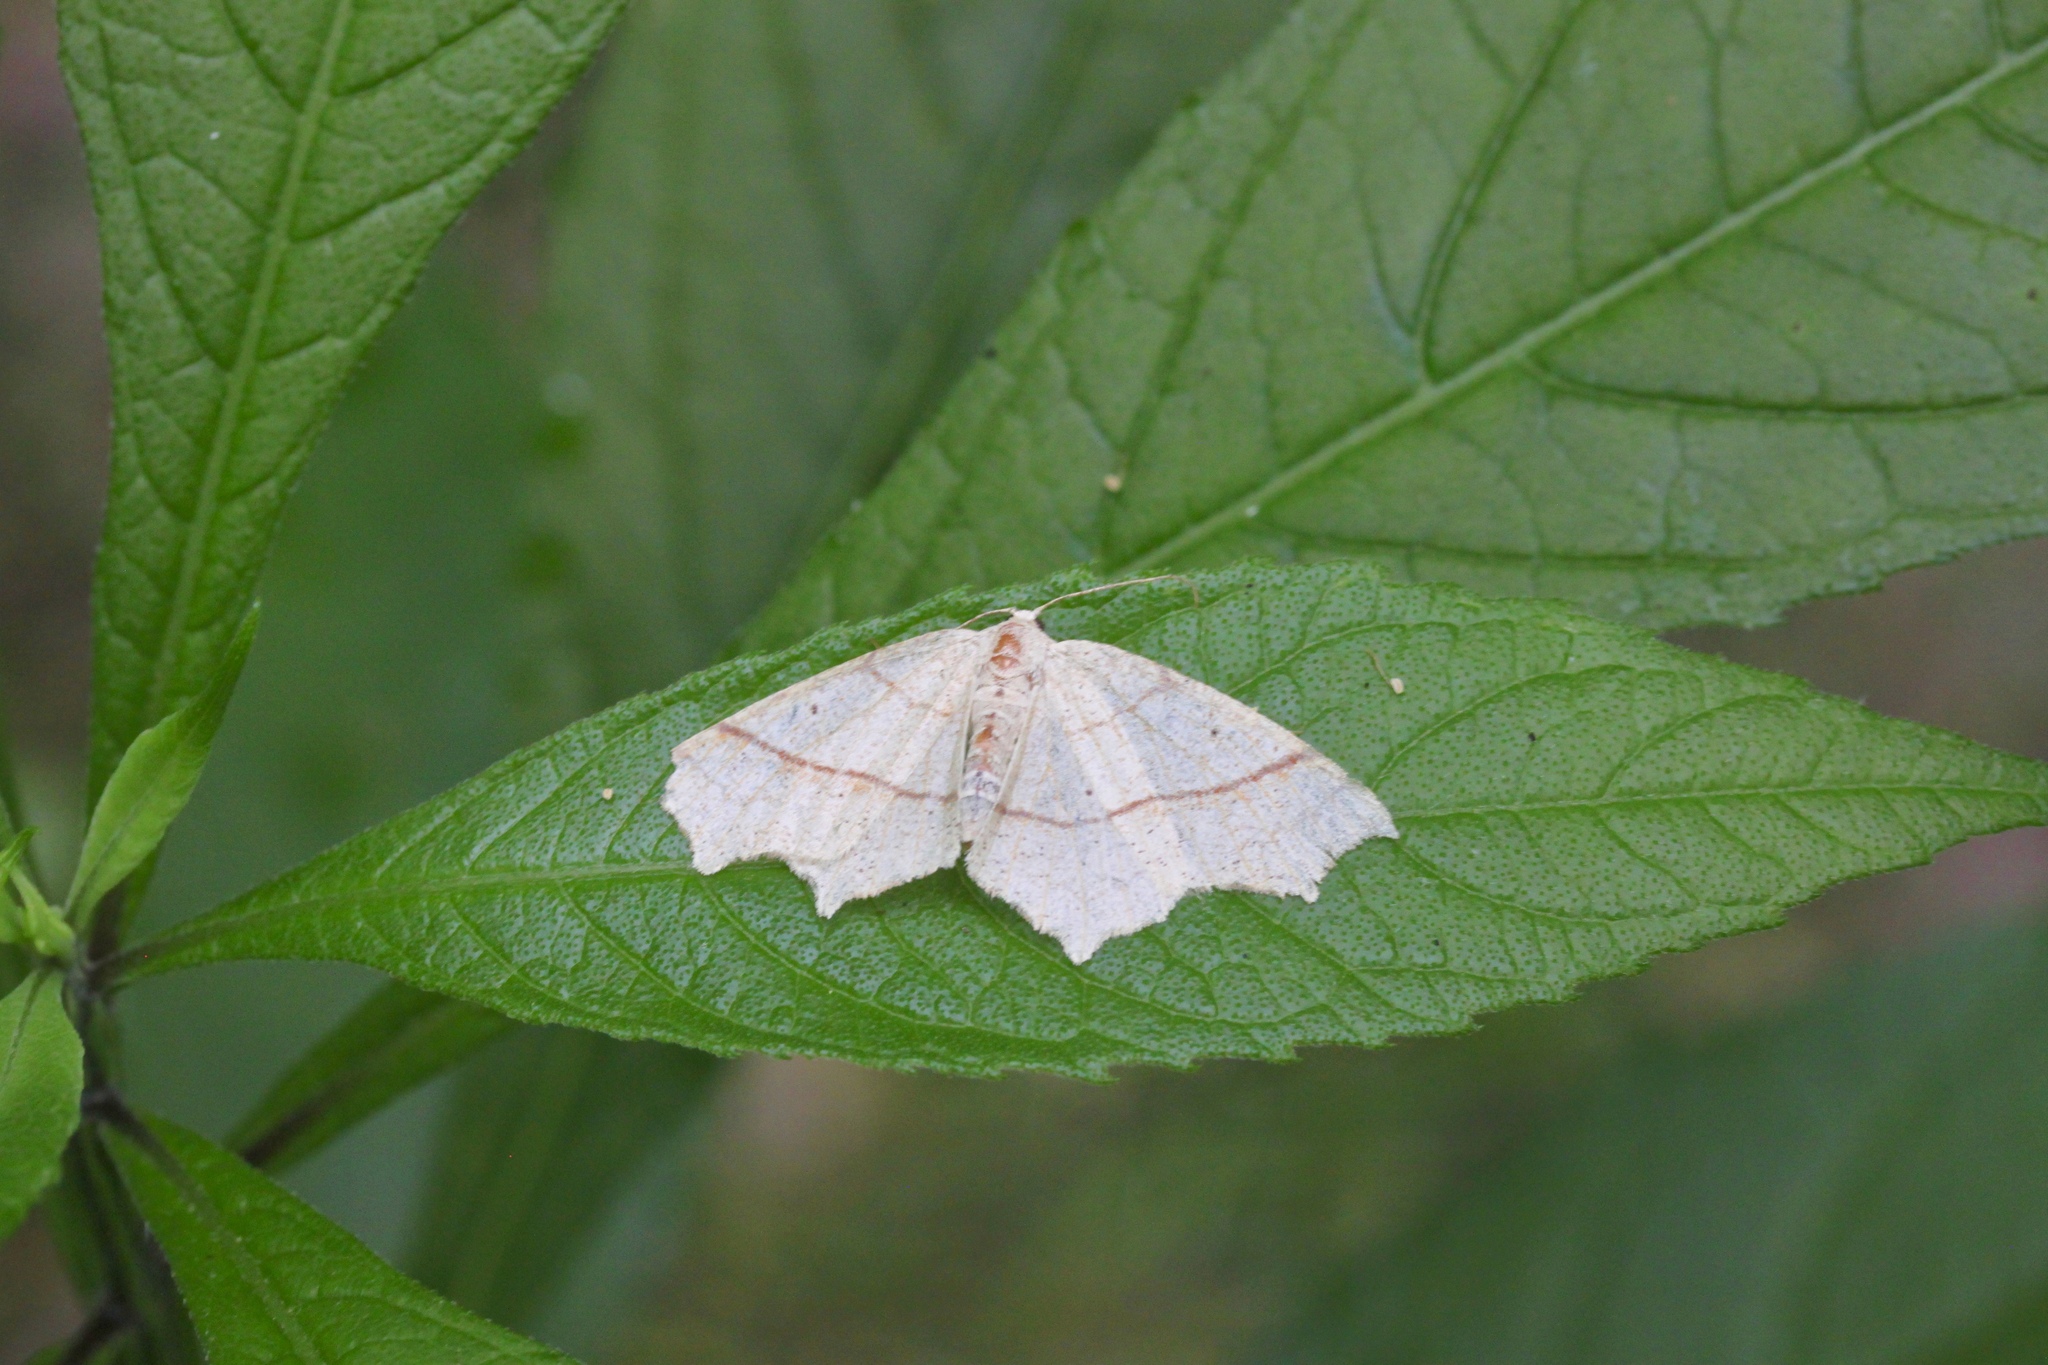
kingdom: Animalia
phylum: Arthropoda
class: Insecta
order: Lepidoptera
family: Geometridae
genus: Besma
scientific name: Besma quercivoraria
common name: Oak besma
